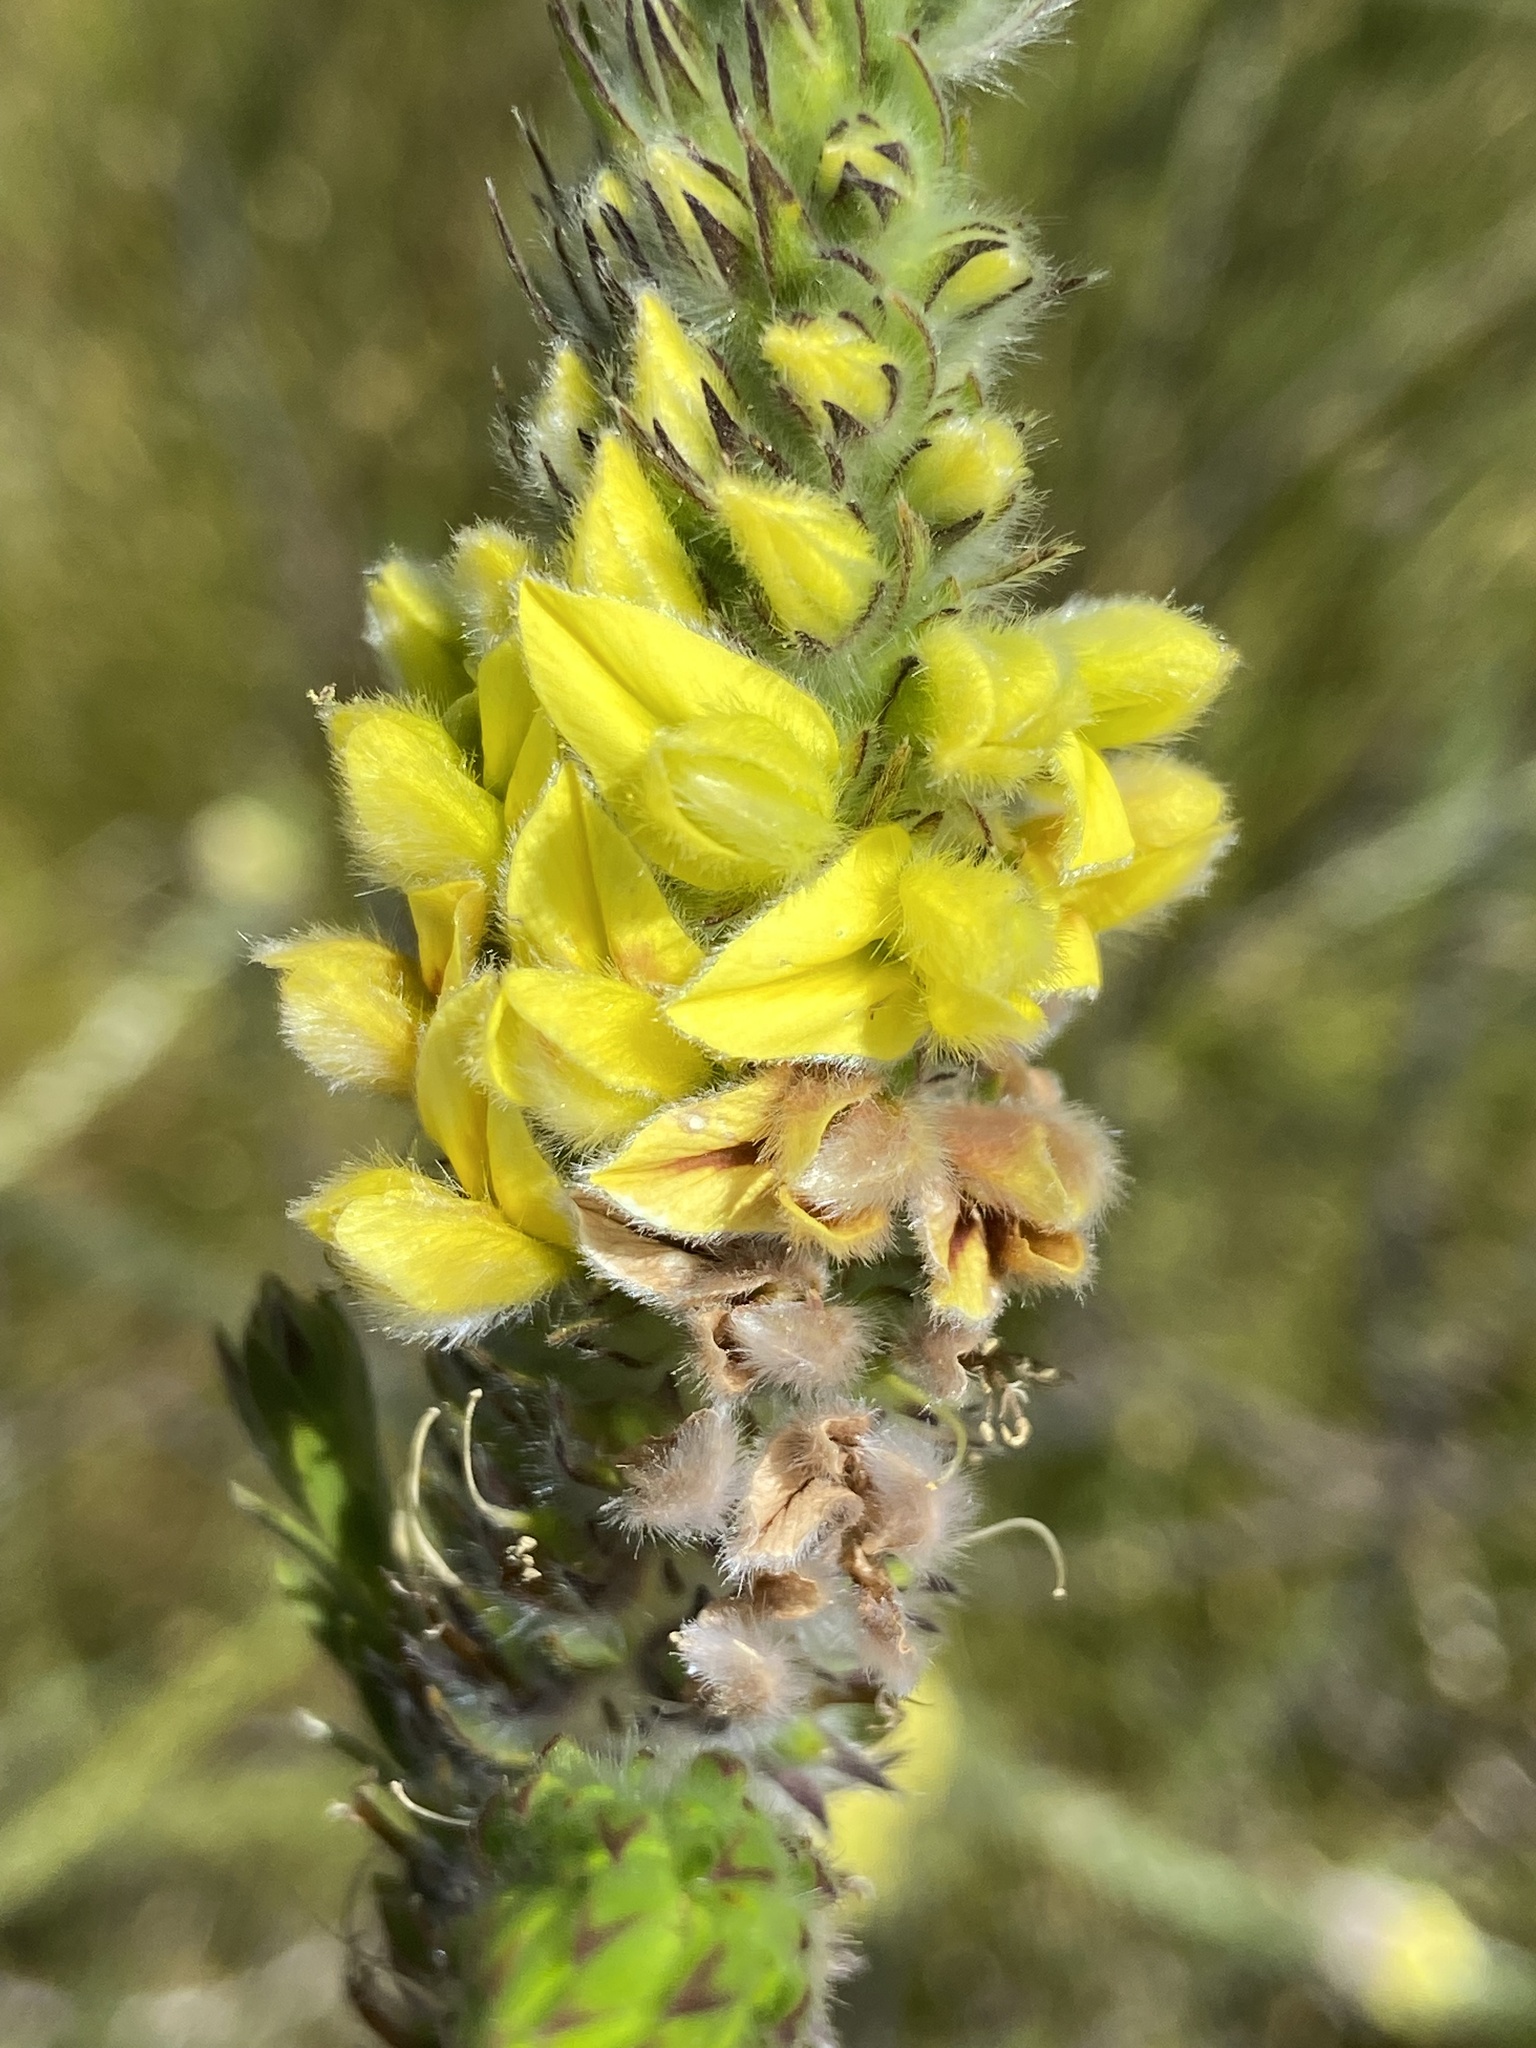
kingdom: Plantae
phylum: Tracheophyta
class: Magnoliopsida
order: Fabales
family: Fabaceae
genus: Aspalathus
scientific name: Aspalathus sericea
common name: Silky pea
